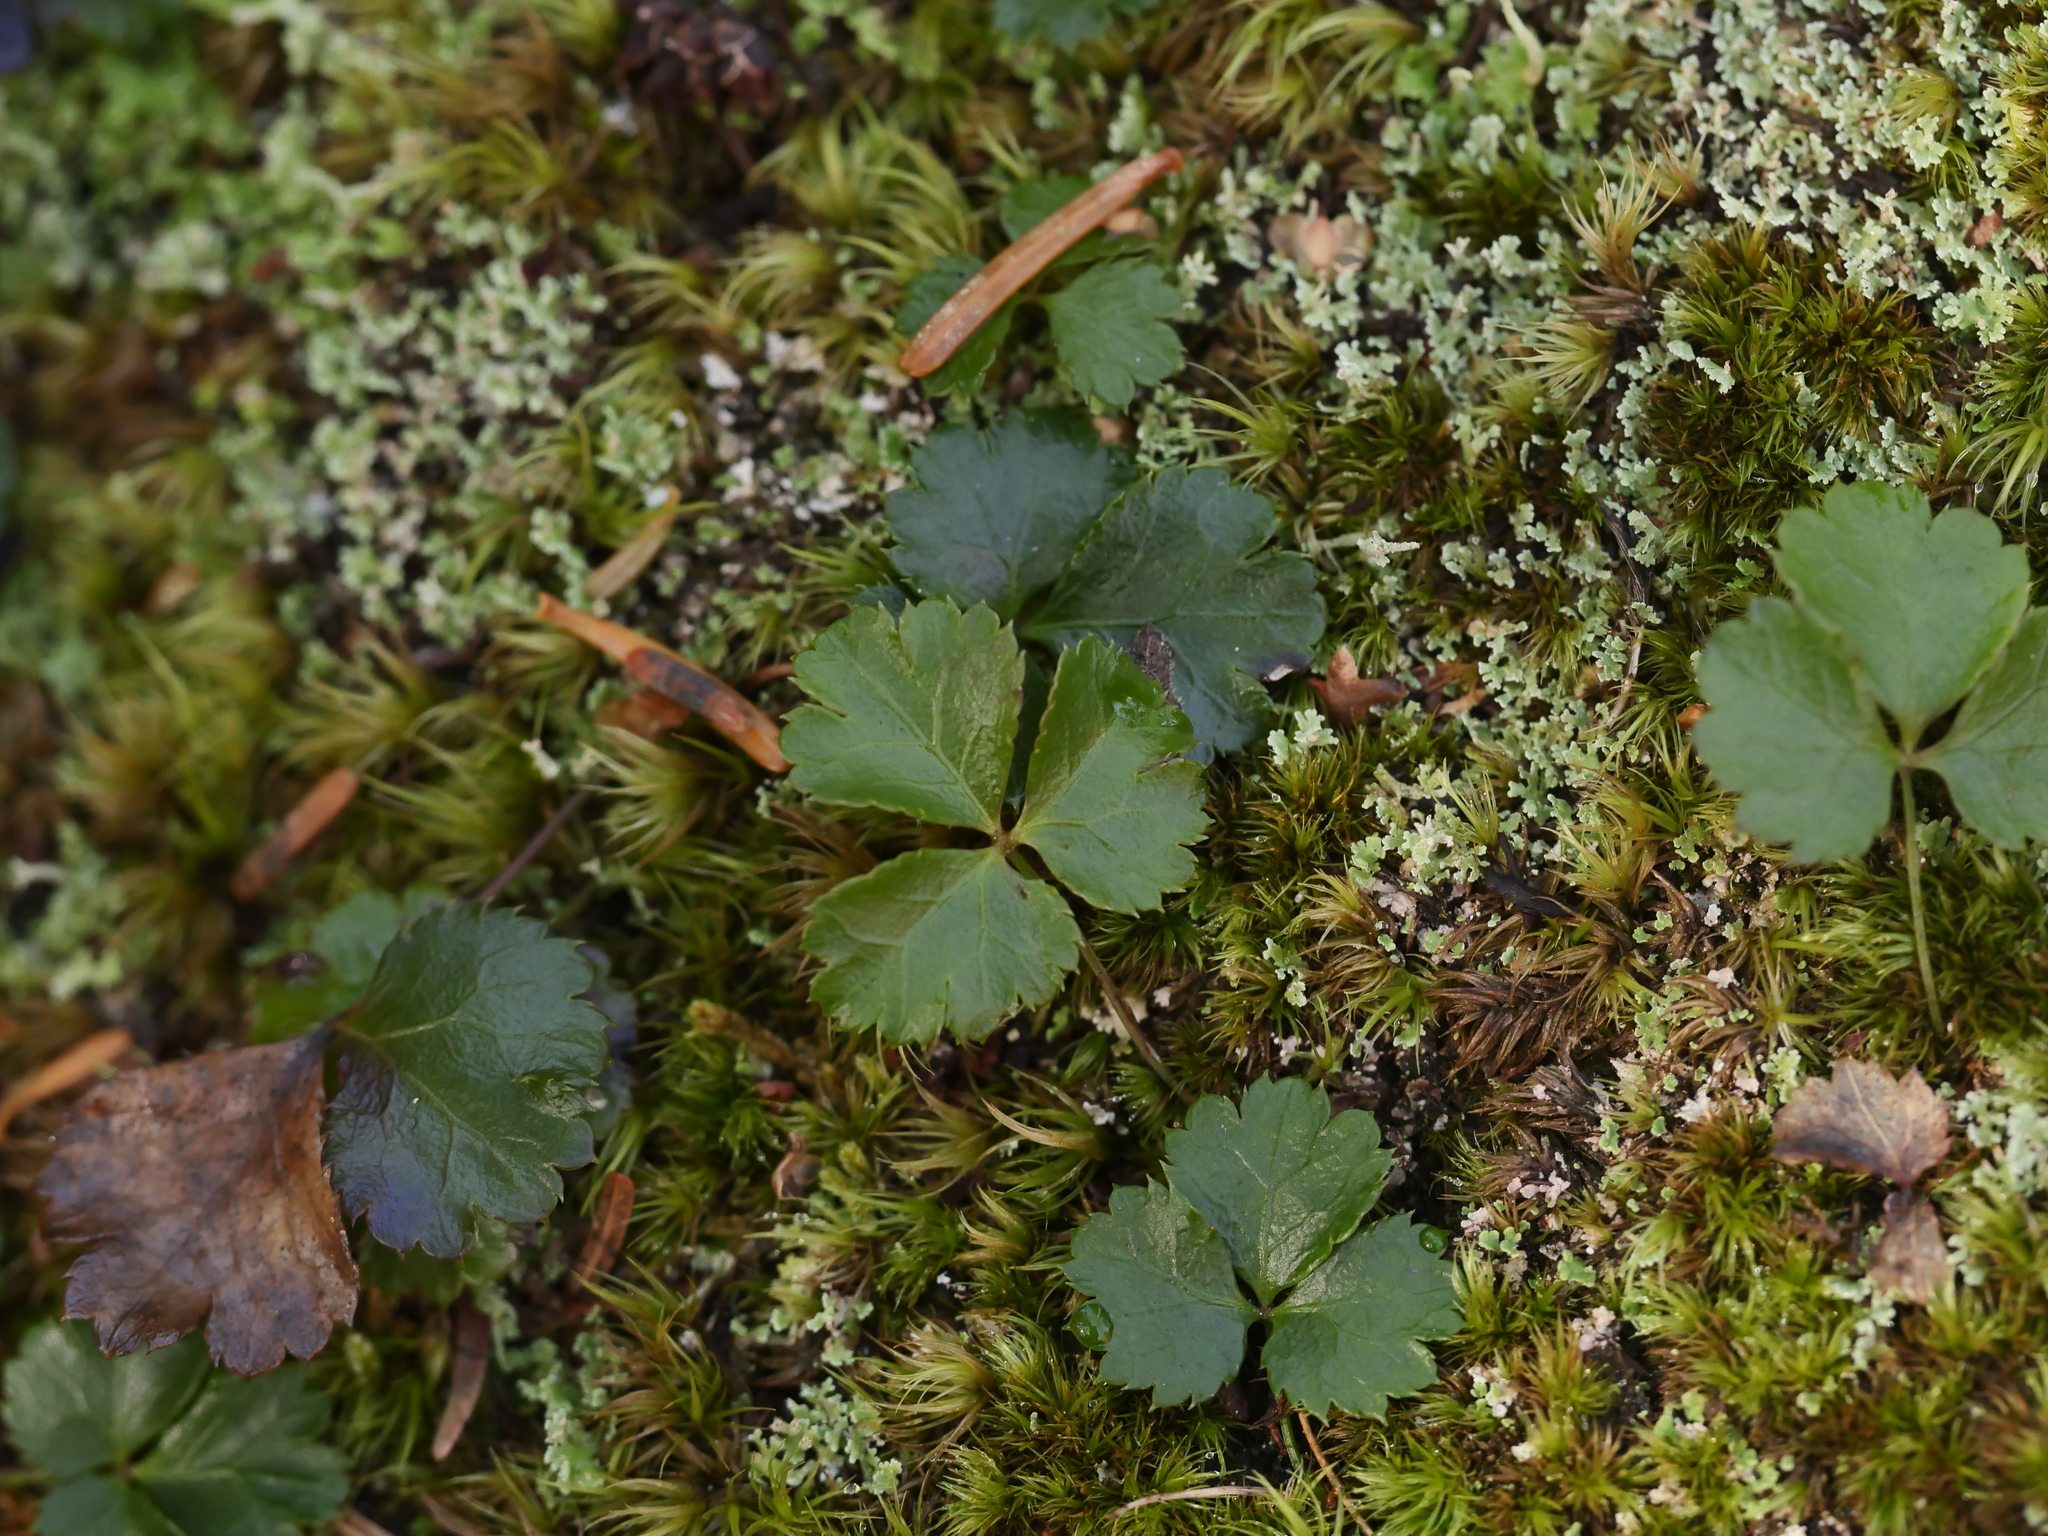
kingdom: Plantae
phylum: Tracheophyta
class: Magnoliopsida
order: Ranunculales
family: Ranunculaceae
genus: Coptis
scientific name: Coptis trifolia
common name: Canker-root
